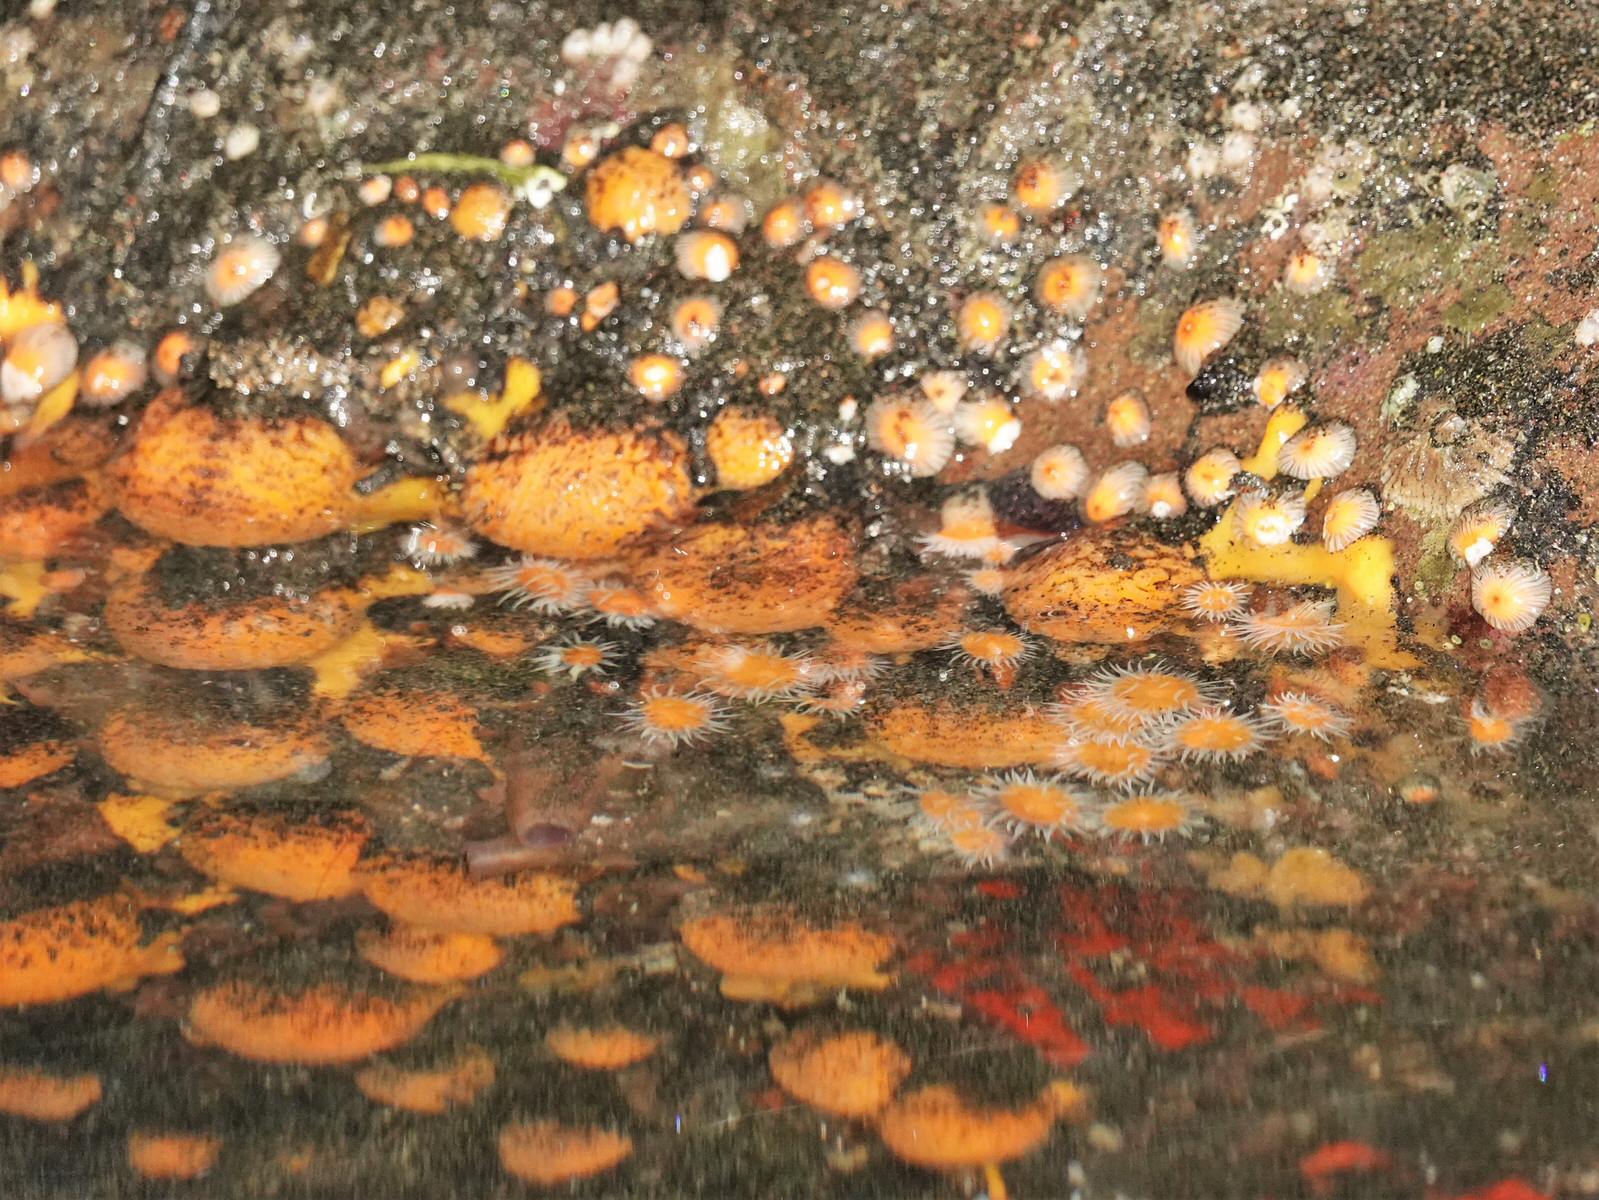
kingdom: Animalia
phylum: Cnidaria
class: Anthozoa
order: Actiniaria
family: Sagartiidae
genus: Anthothoe
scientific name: Anthothoe albocincta
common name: Orange striped anemone
